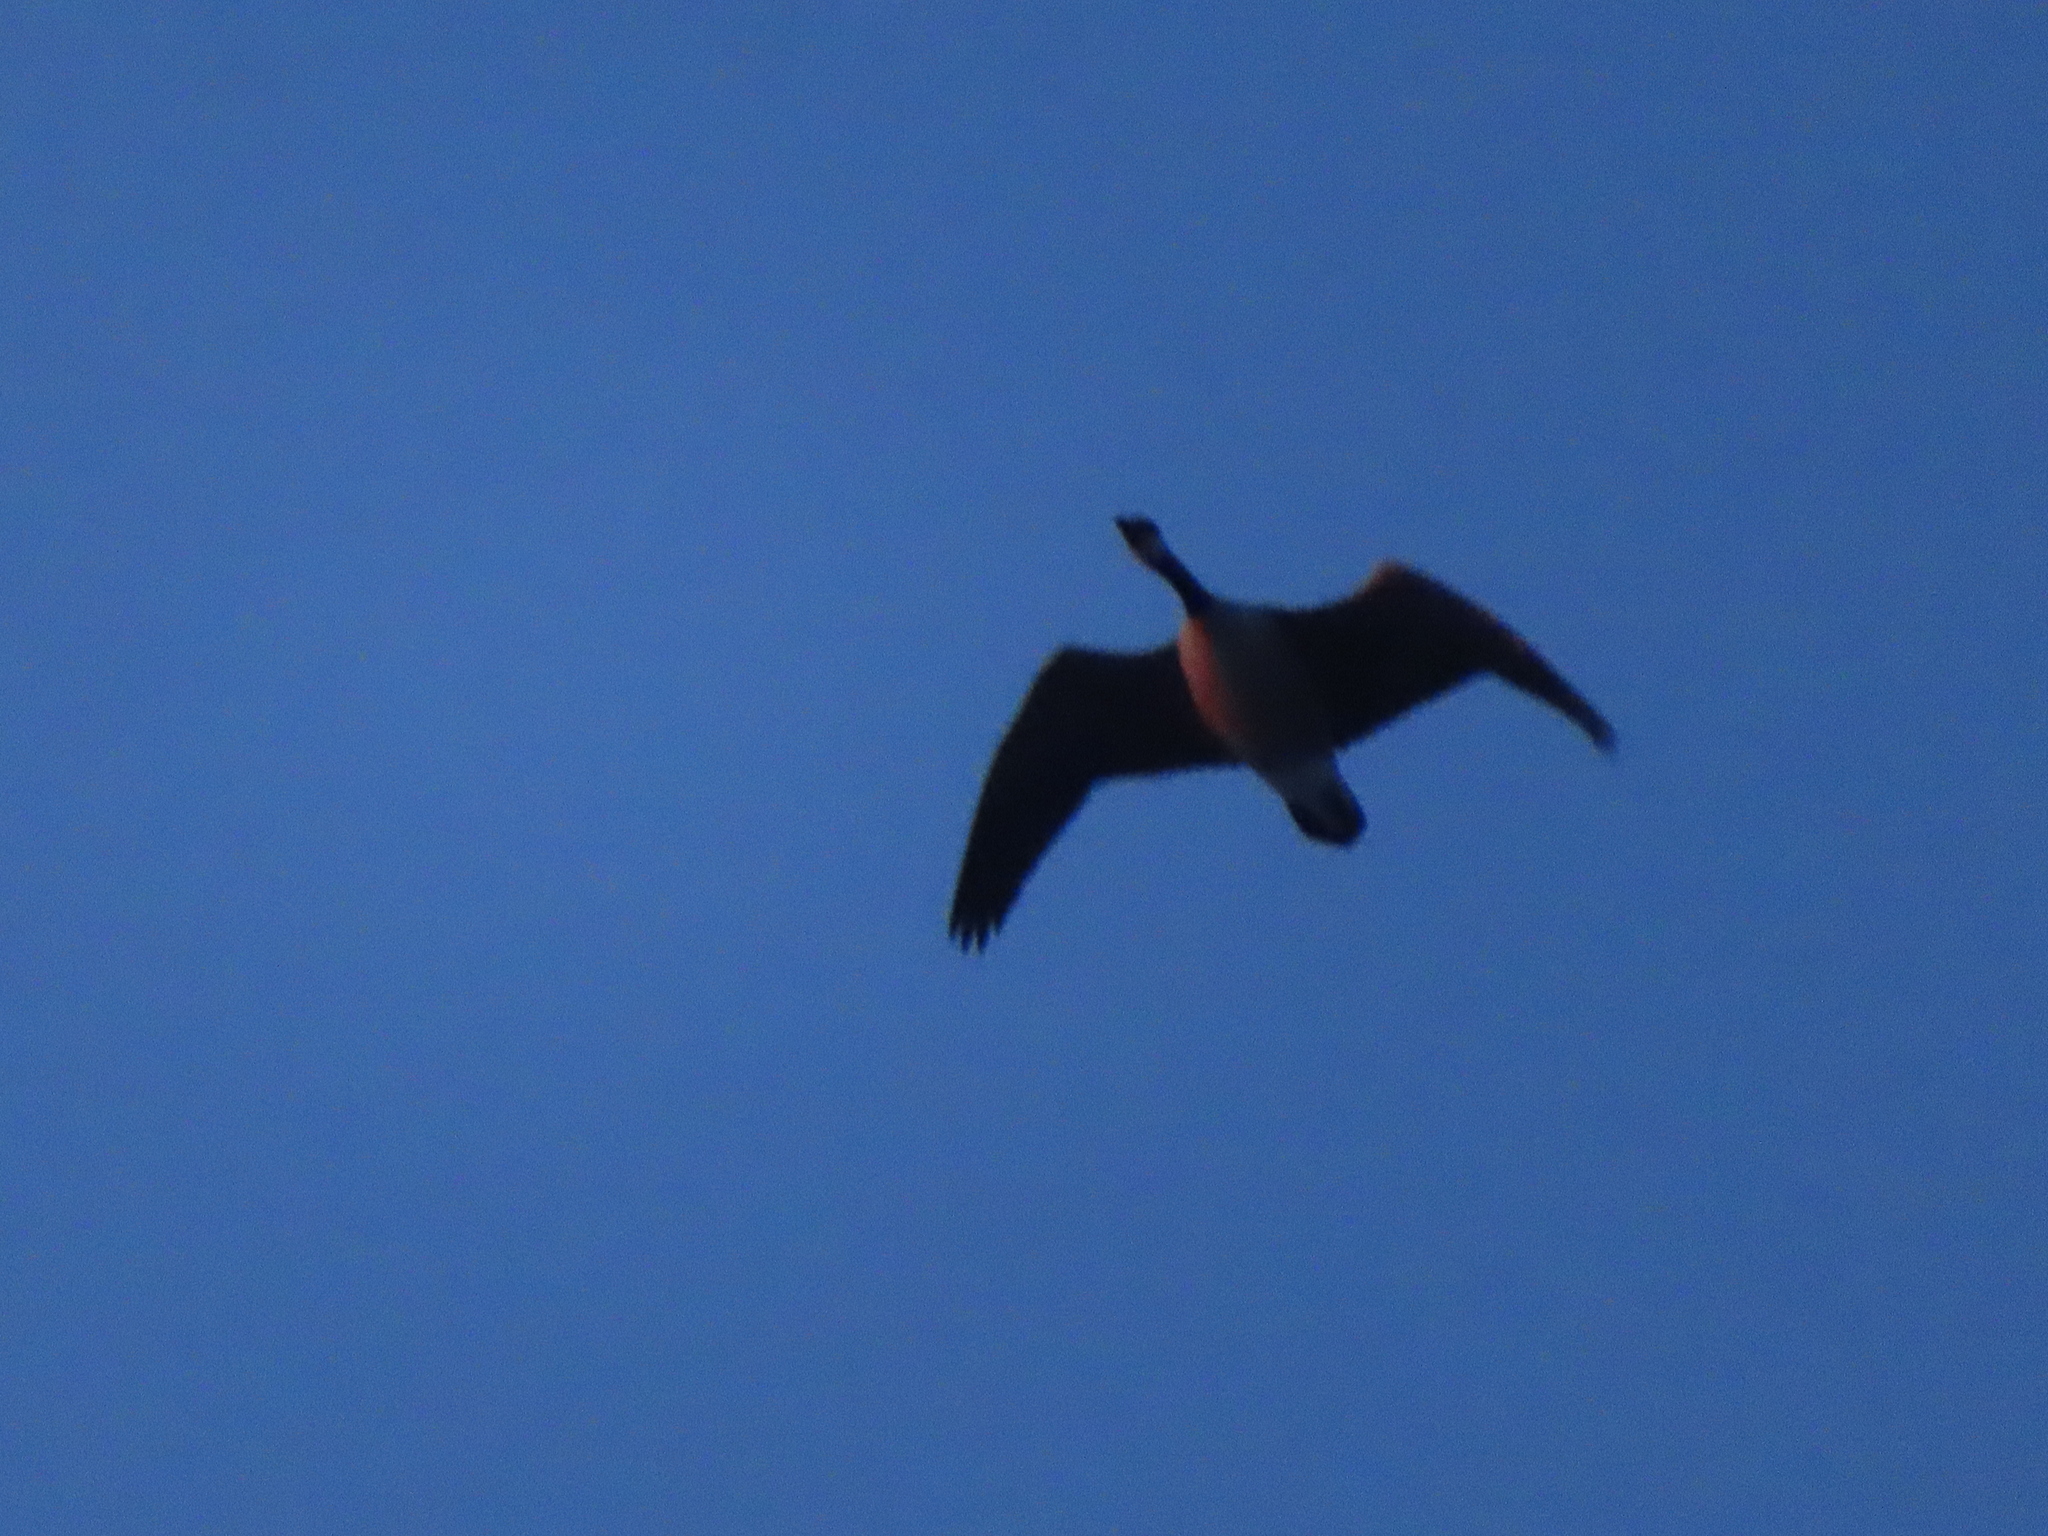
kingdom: Animalia
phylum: Chordata
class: Aves
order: Anseriformes
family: Anatidae
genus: Branta
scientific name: Branta canadensis
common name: Canada goose
